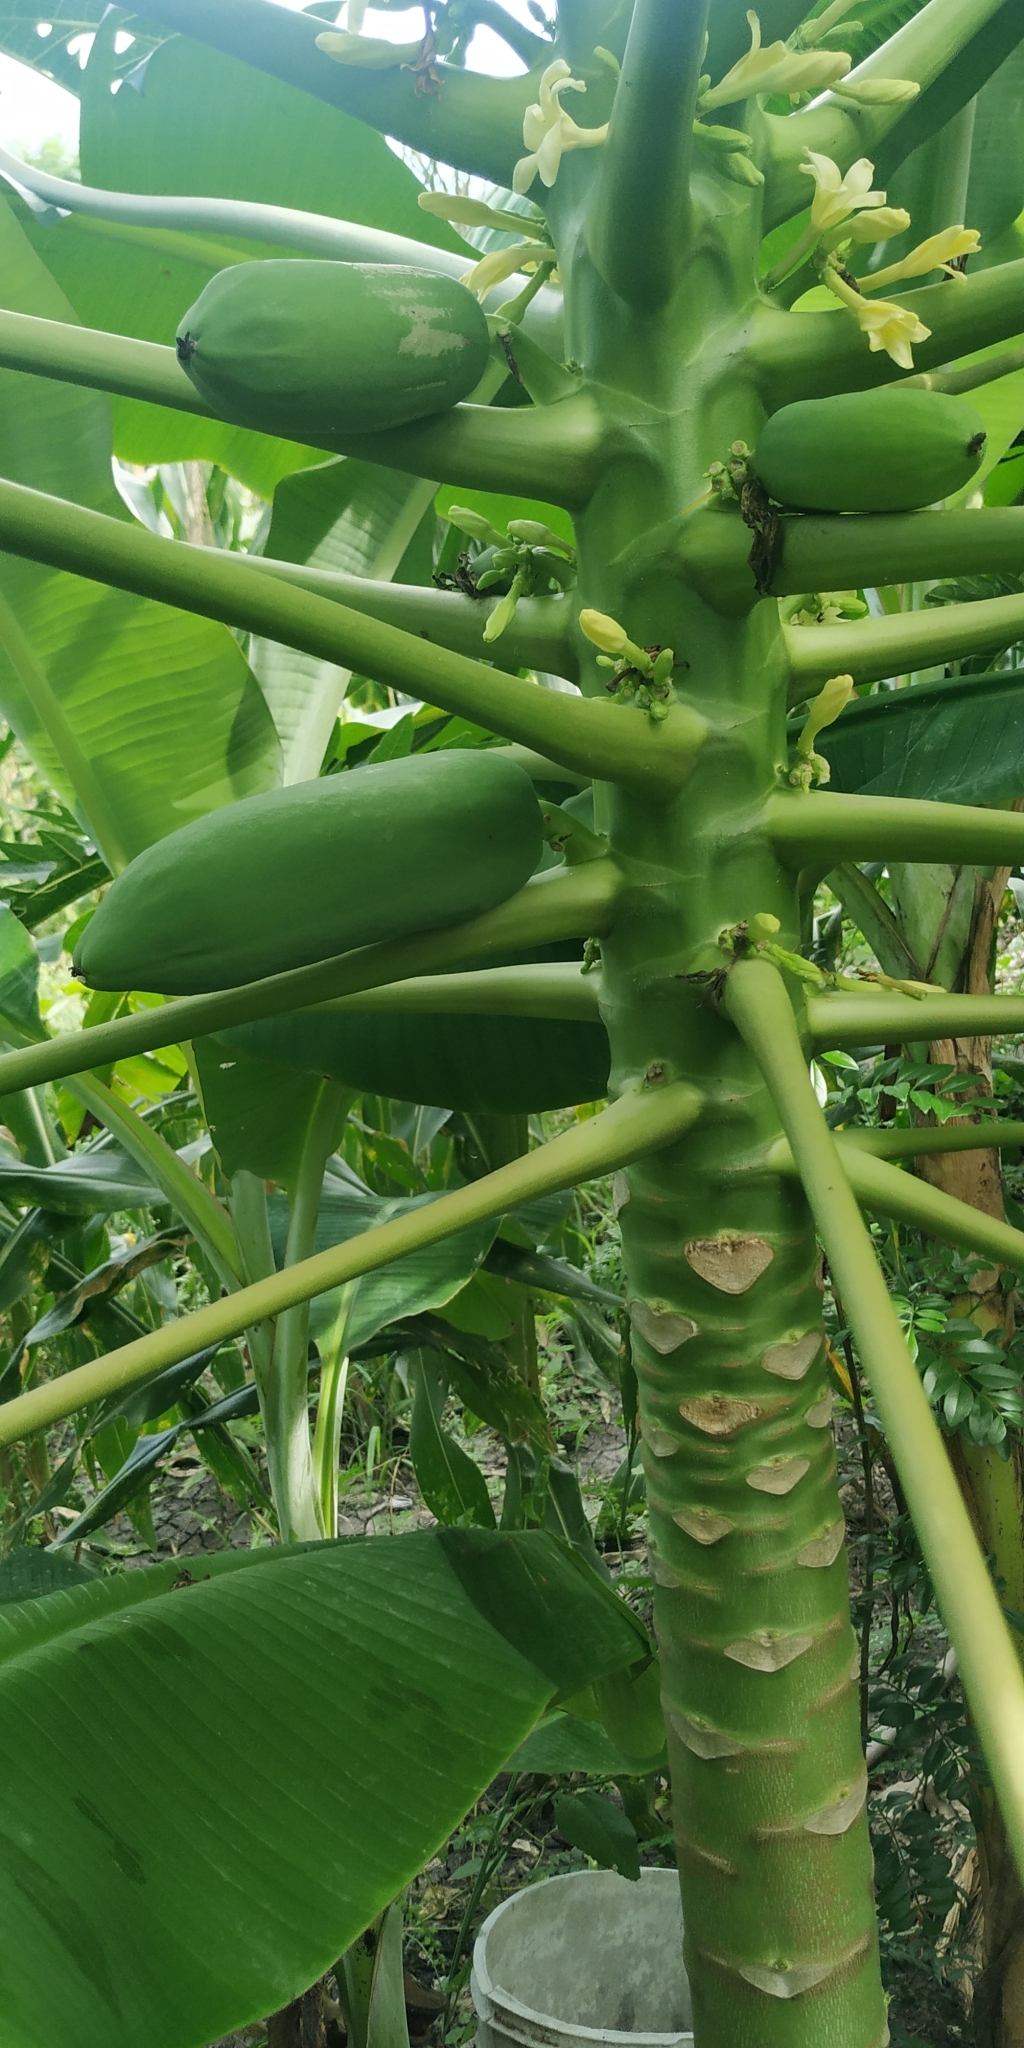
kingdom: Plantae
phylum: Tracheophyta
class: Magnoliopsida
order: Brassicales
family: Caricaceae
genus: Carica
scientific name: Carica papaya
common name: Papaya
